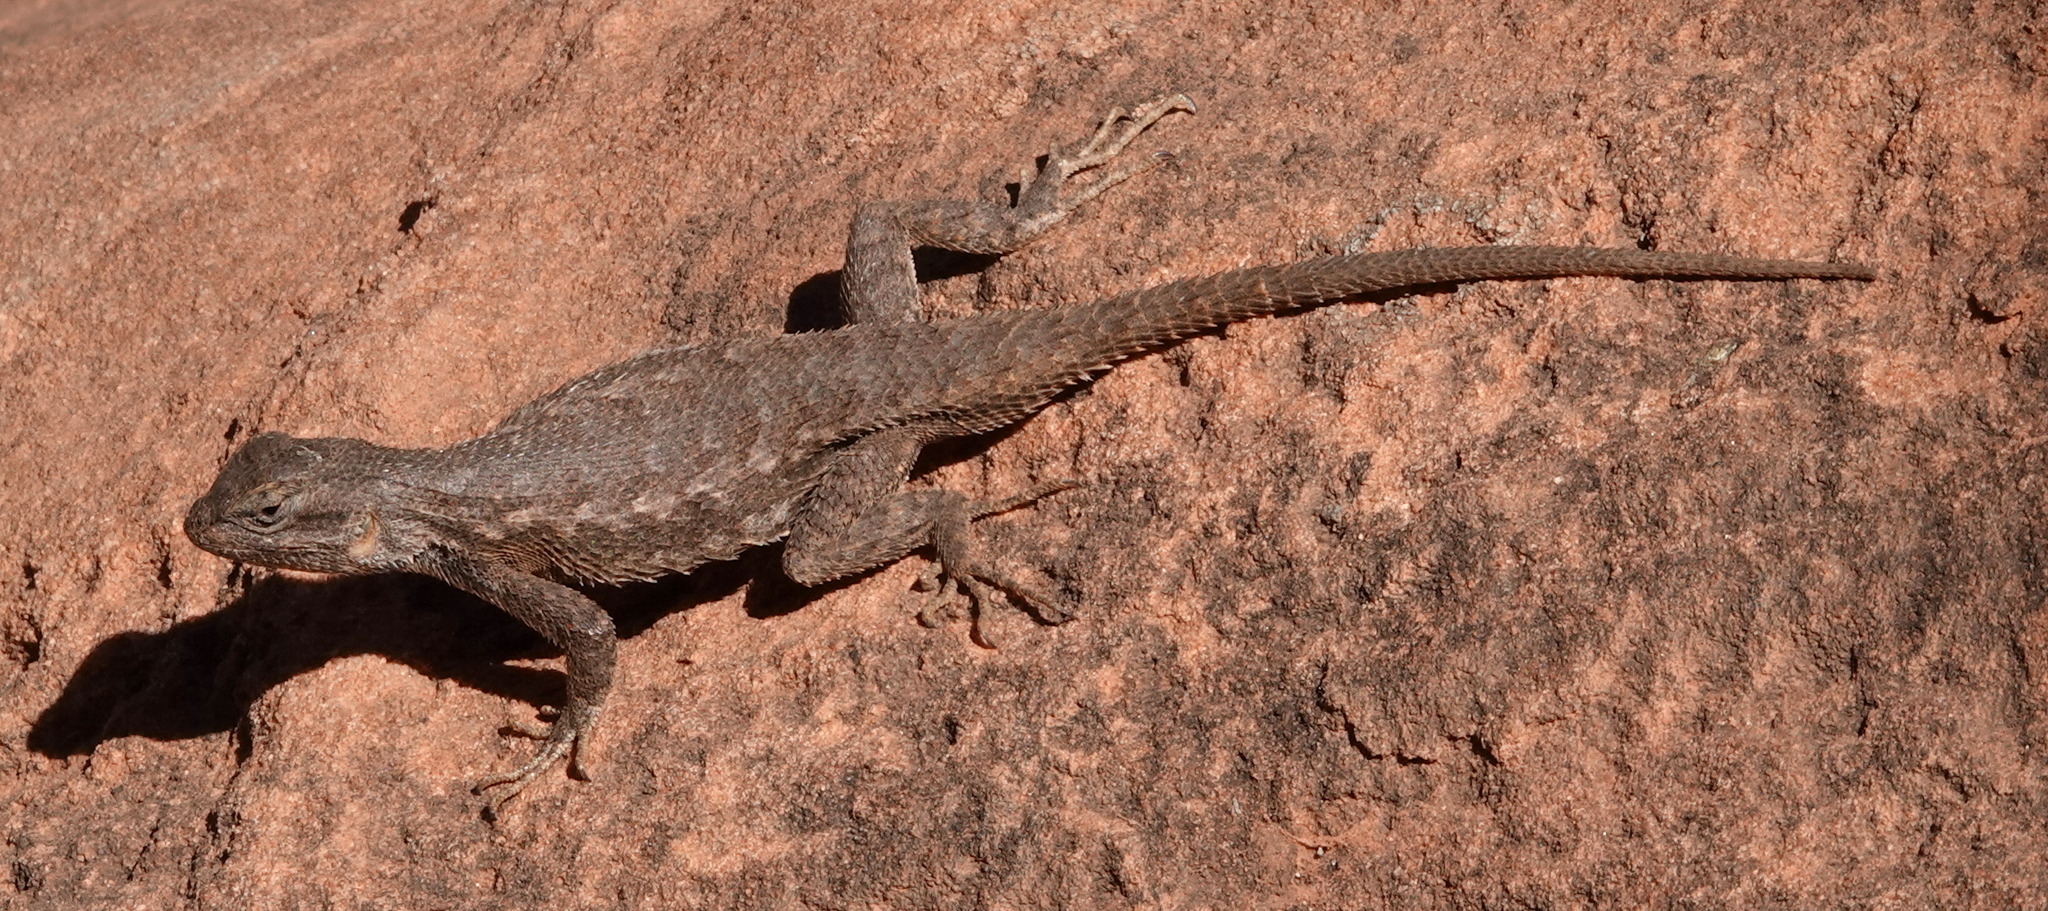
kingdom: Animalia
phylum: Chordata
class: Squamata
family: Phrynosomatidae
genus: Sceloporus
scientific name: Sceloporus tristichus
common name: Plateau fence lizard
